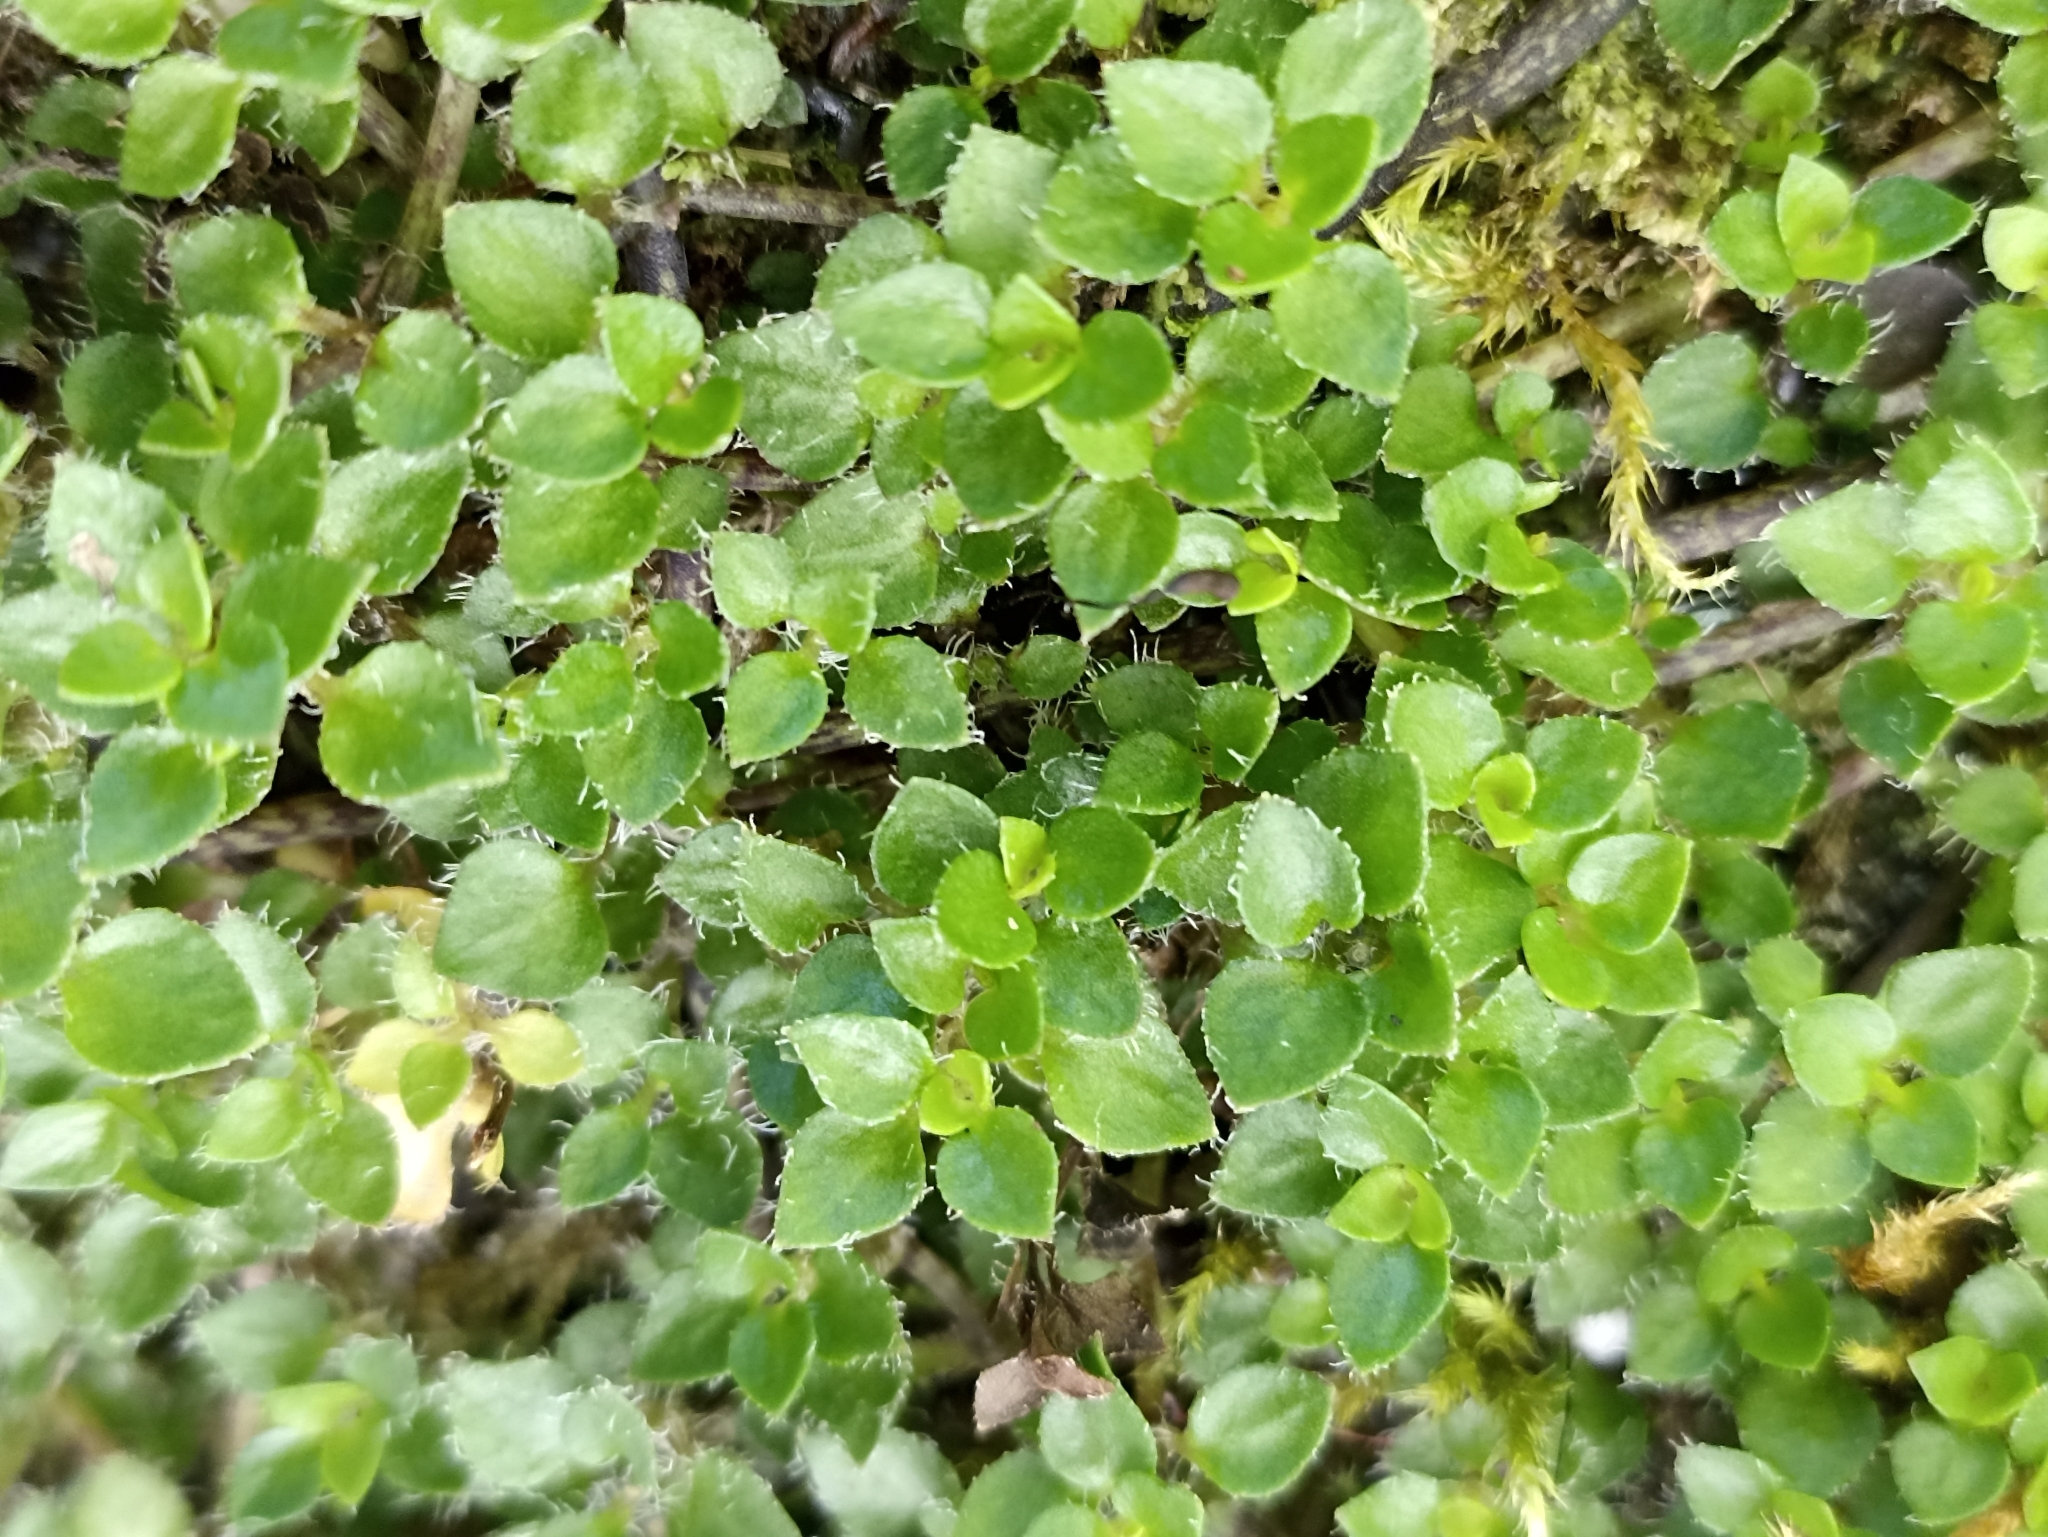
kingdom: Plantae
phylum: Tracheophyta
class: Magnoliopsida
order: Gentianales
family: Rubiaceae
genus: Nertera
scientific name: Nertera ciliata
